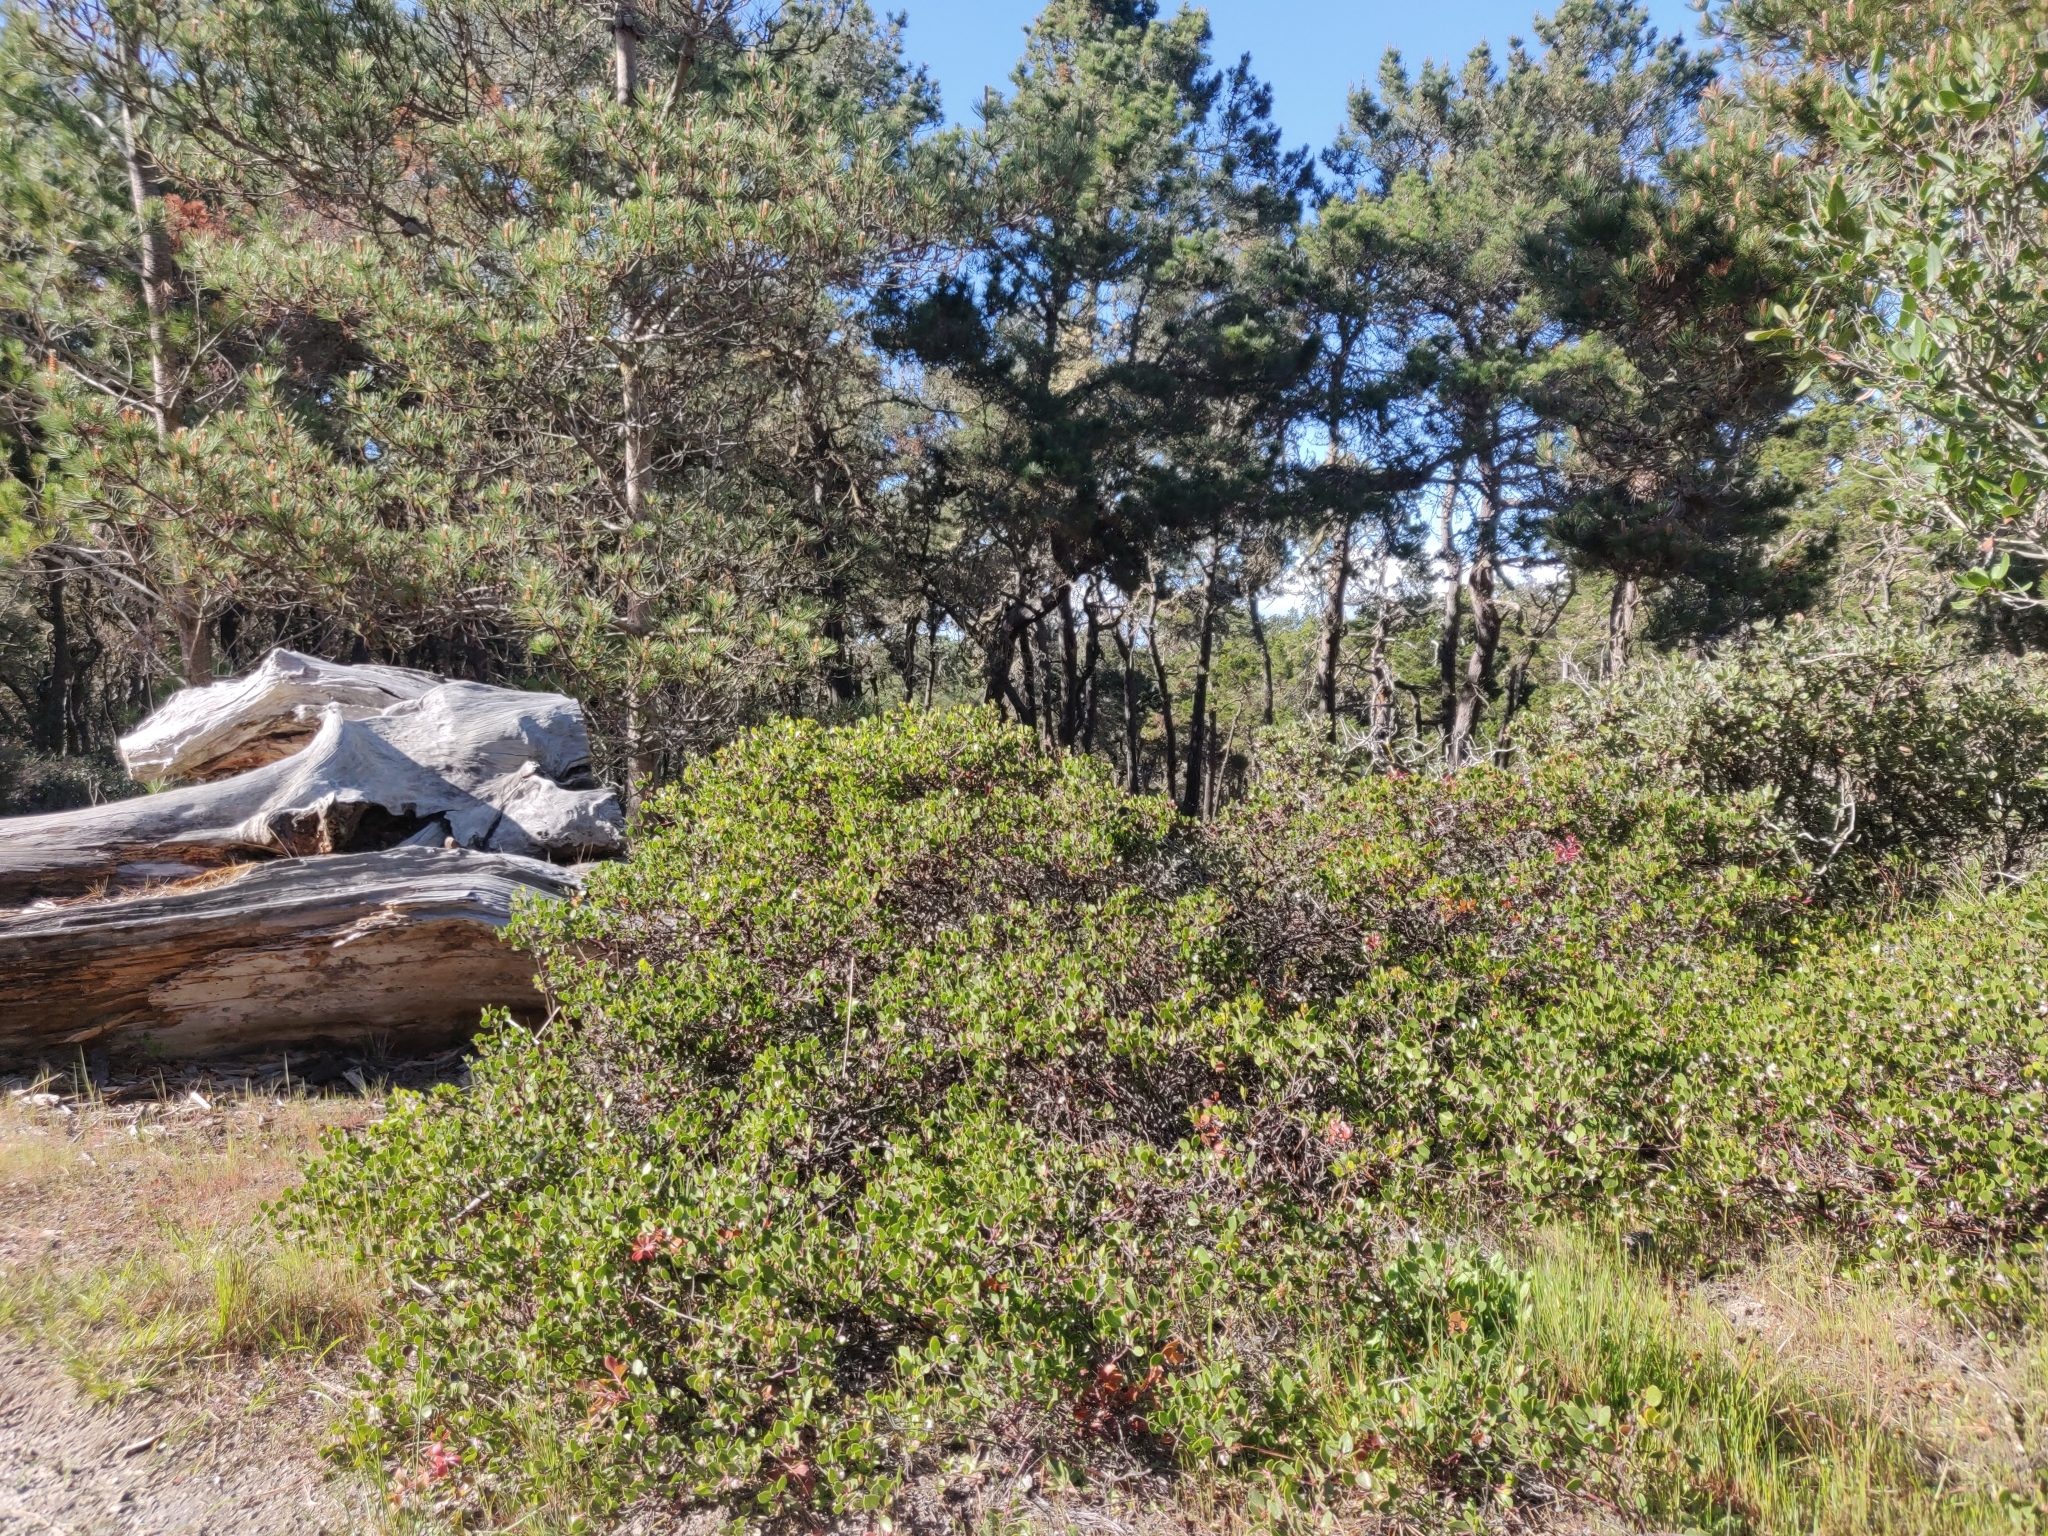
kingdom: Plantae
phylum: Tracheophyta
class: Magnoliopsida
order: Ericales
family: Ericaceae
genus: Arctostaphylos
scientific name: Arctostaphylos hookeri
